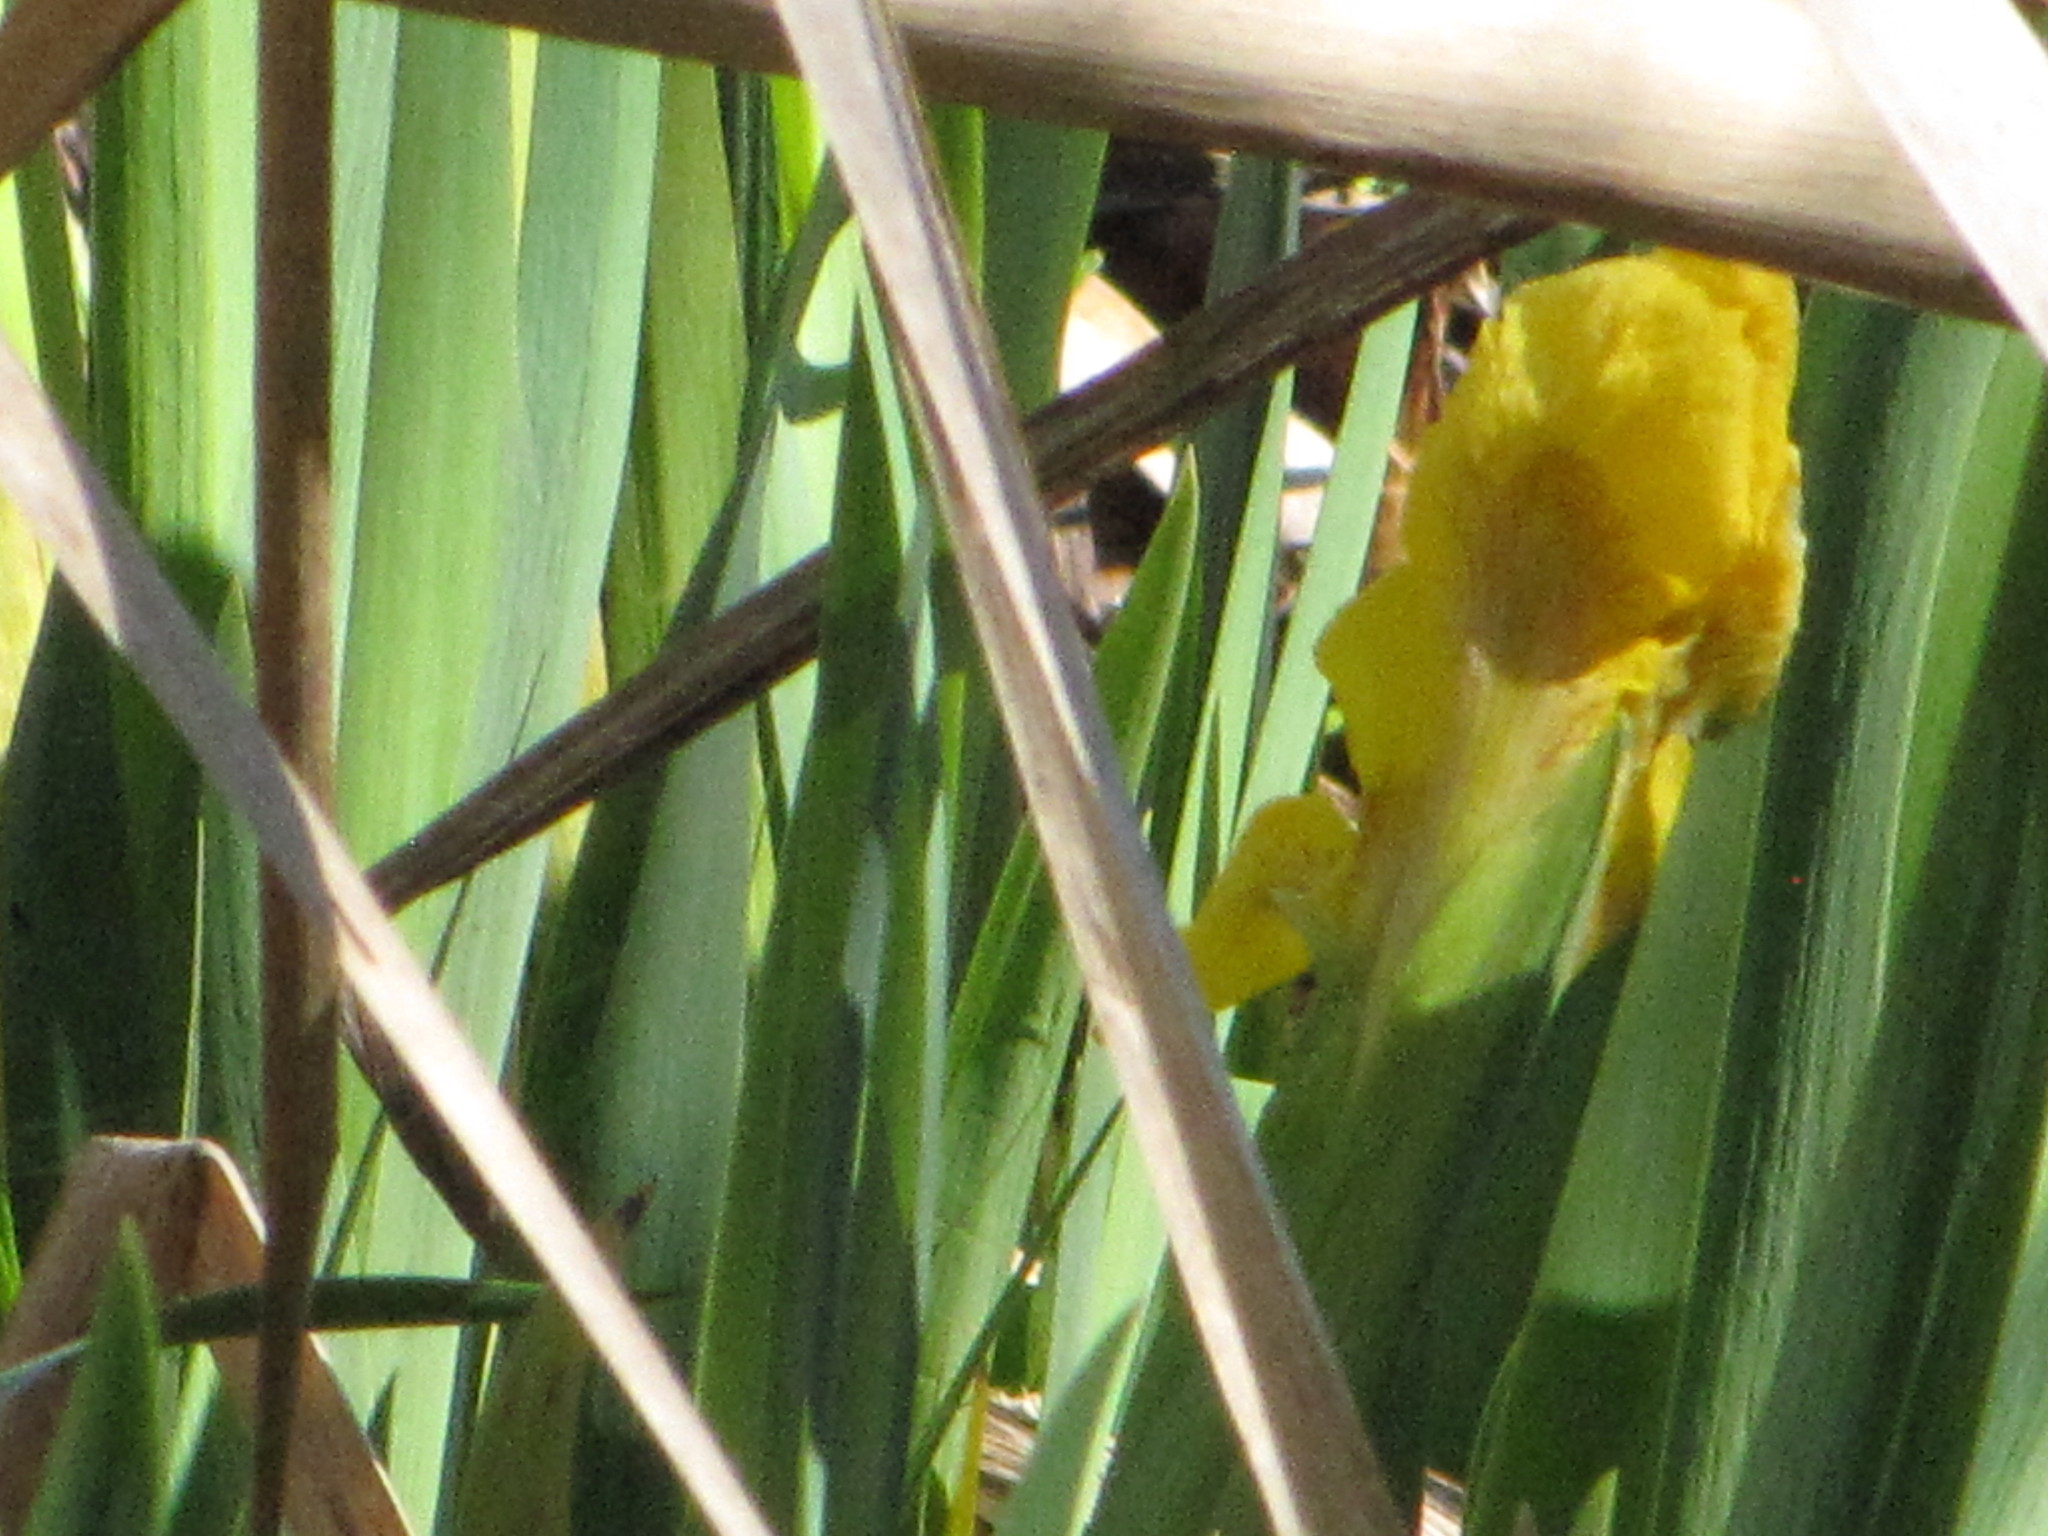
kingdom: Plantae
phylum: Tracheophyta
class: Liliopsida
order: Asparagales
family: Iridaceae
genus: Iris
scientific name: Iris pseudacorus
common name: Yellow flag
